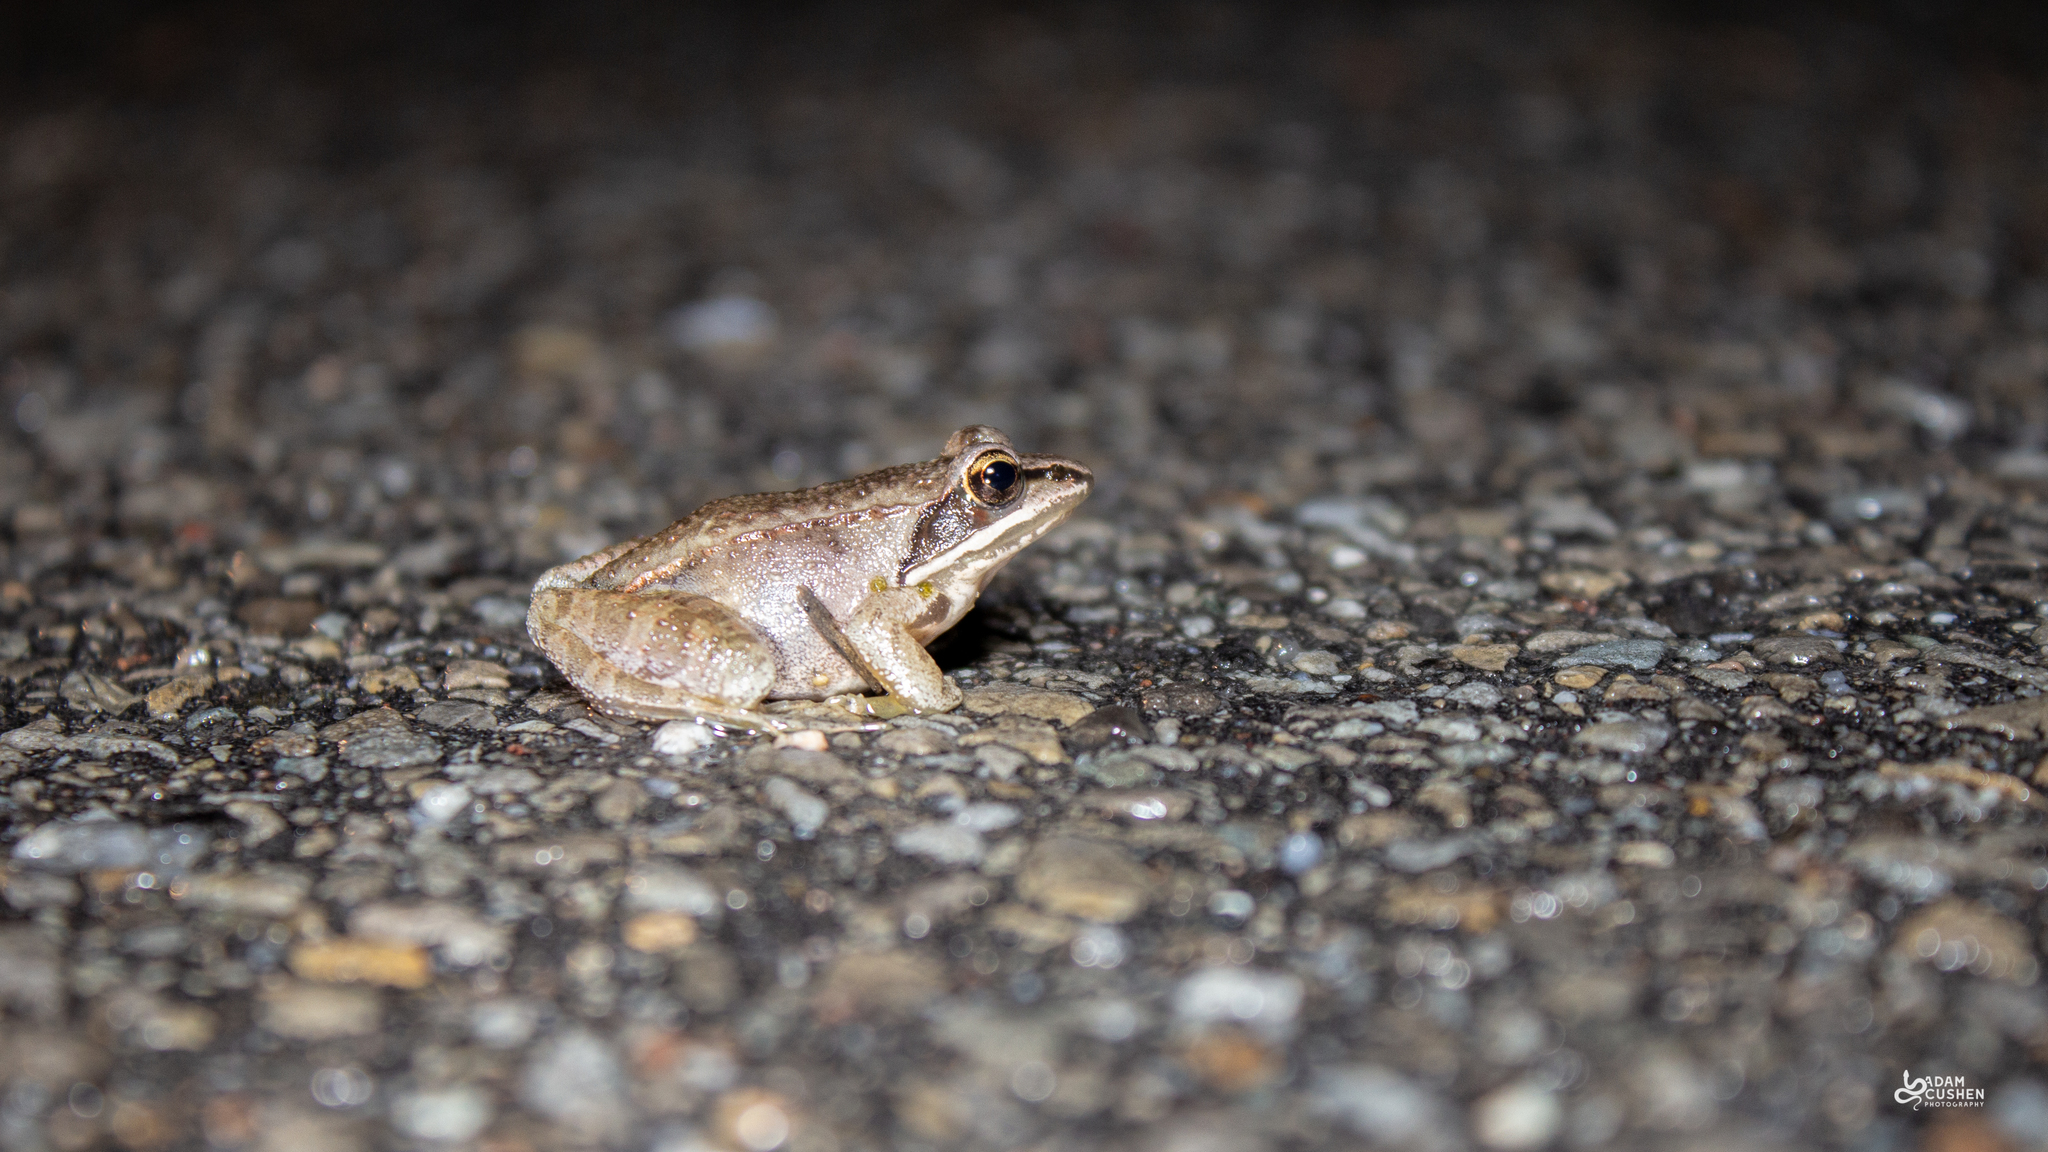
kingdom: Animalia
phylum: Chordata
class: Amphibia
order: Anura
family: Ranidae
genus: Lithobates
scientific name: Lithobates sylvaticus
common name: Wood frog
